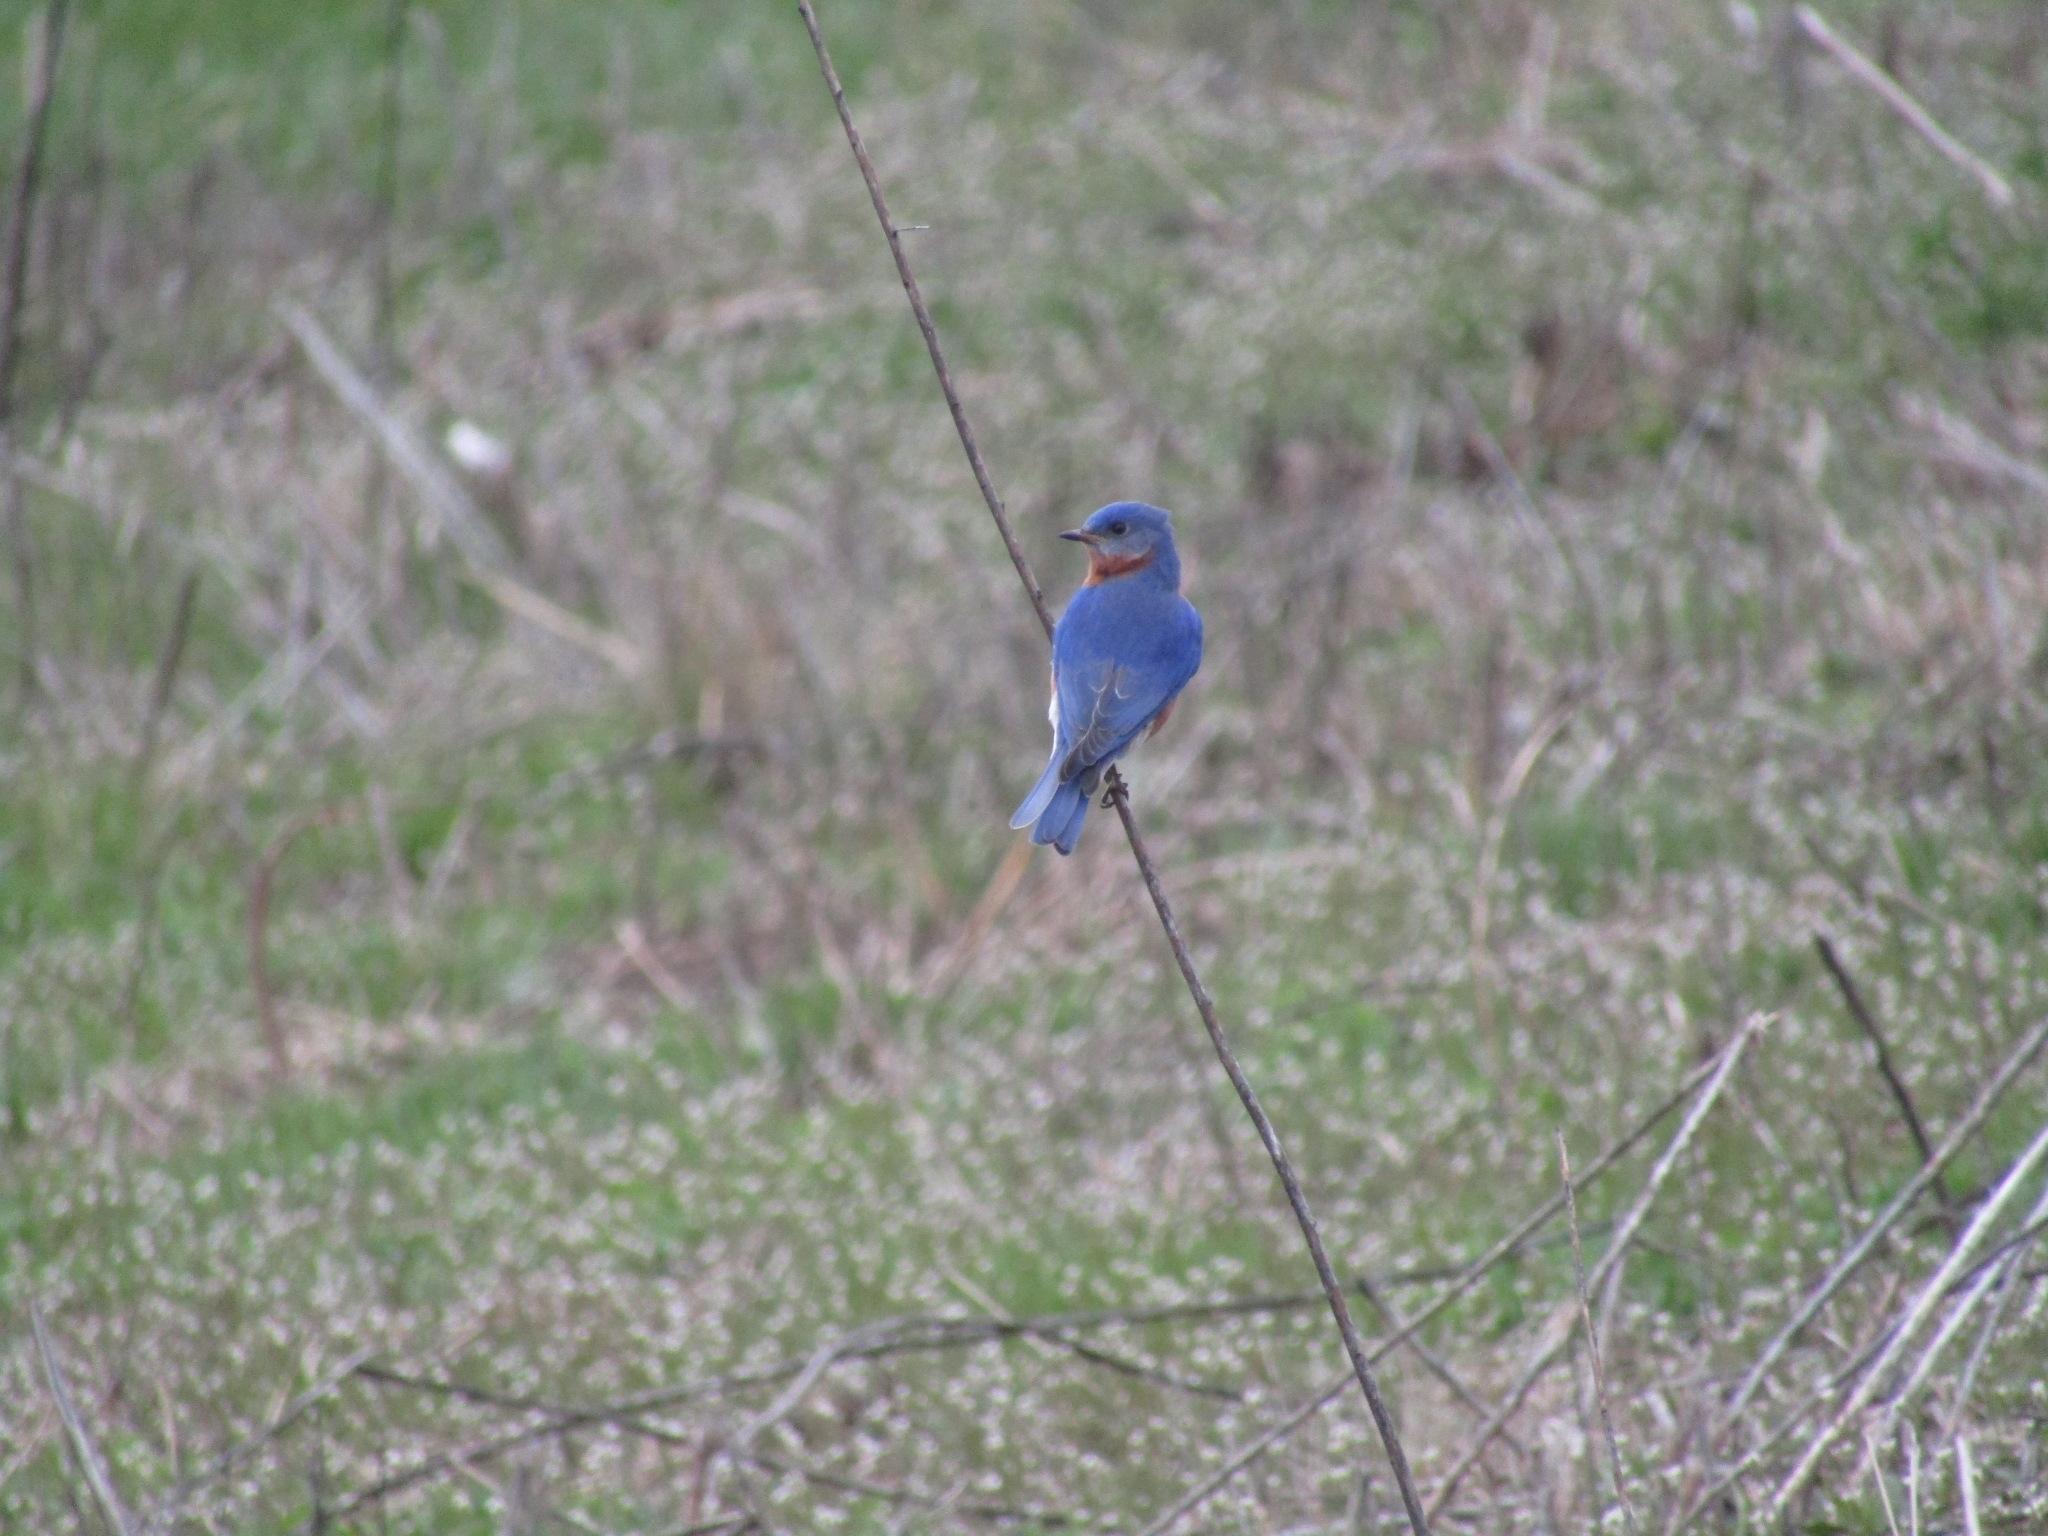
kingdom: Animalia
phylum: Chordata
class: Aves
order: Passeriformes
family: Turdidae
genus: Sialia
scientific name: Sialia sialis
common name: Eastern bluebird
